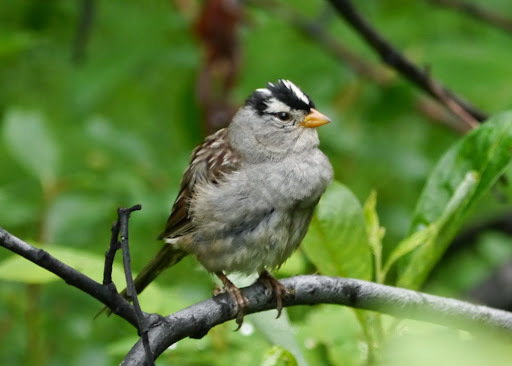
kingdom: Animalia
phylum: Chordata
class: Aves
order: Passeriformes
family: Passerellidae
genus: Zonotrichia
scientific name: Zonotrichia leucophrys
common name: White-crowned sparrow
